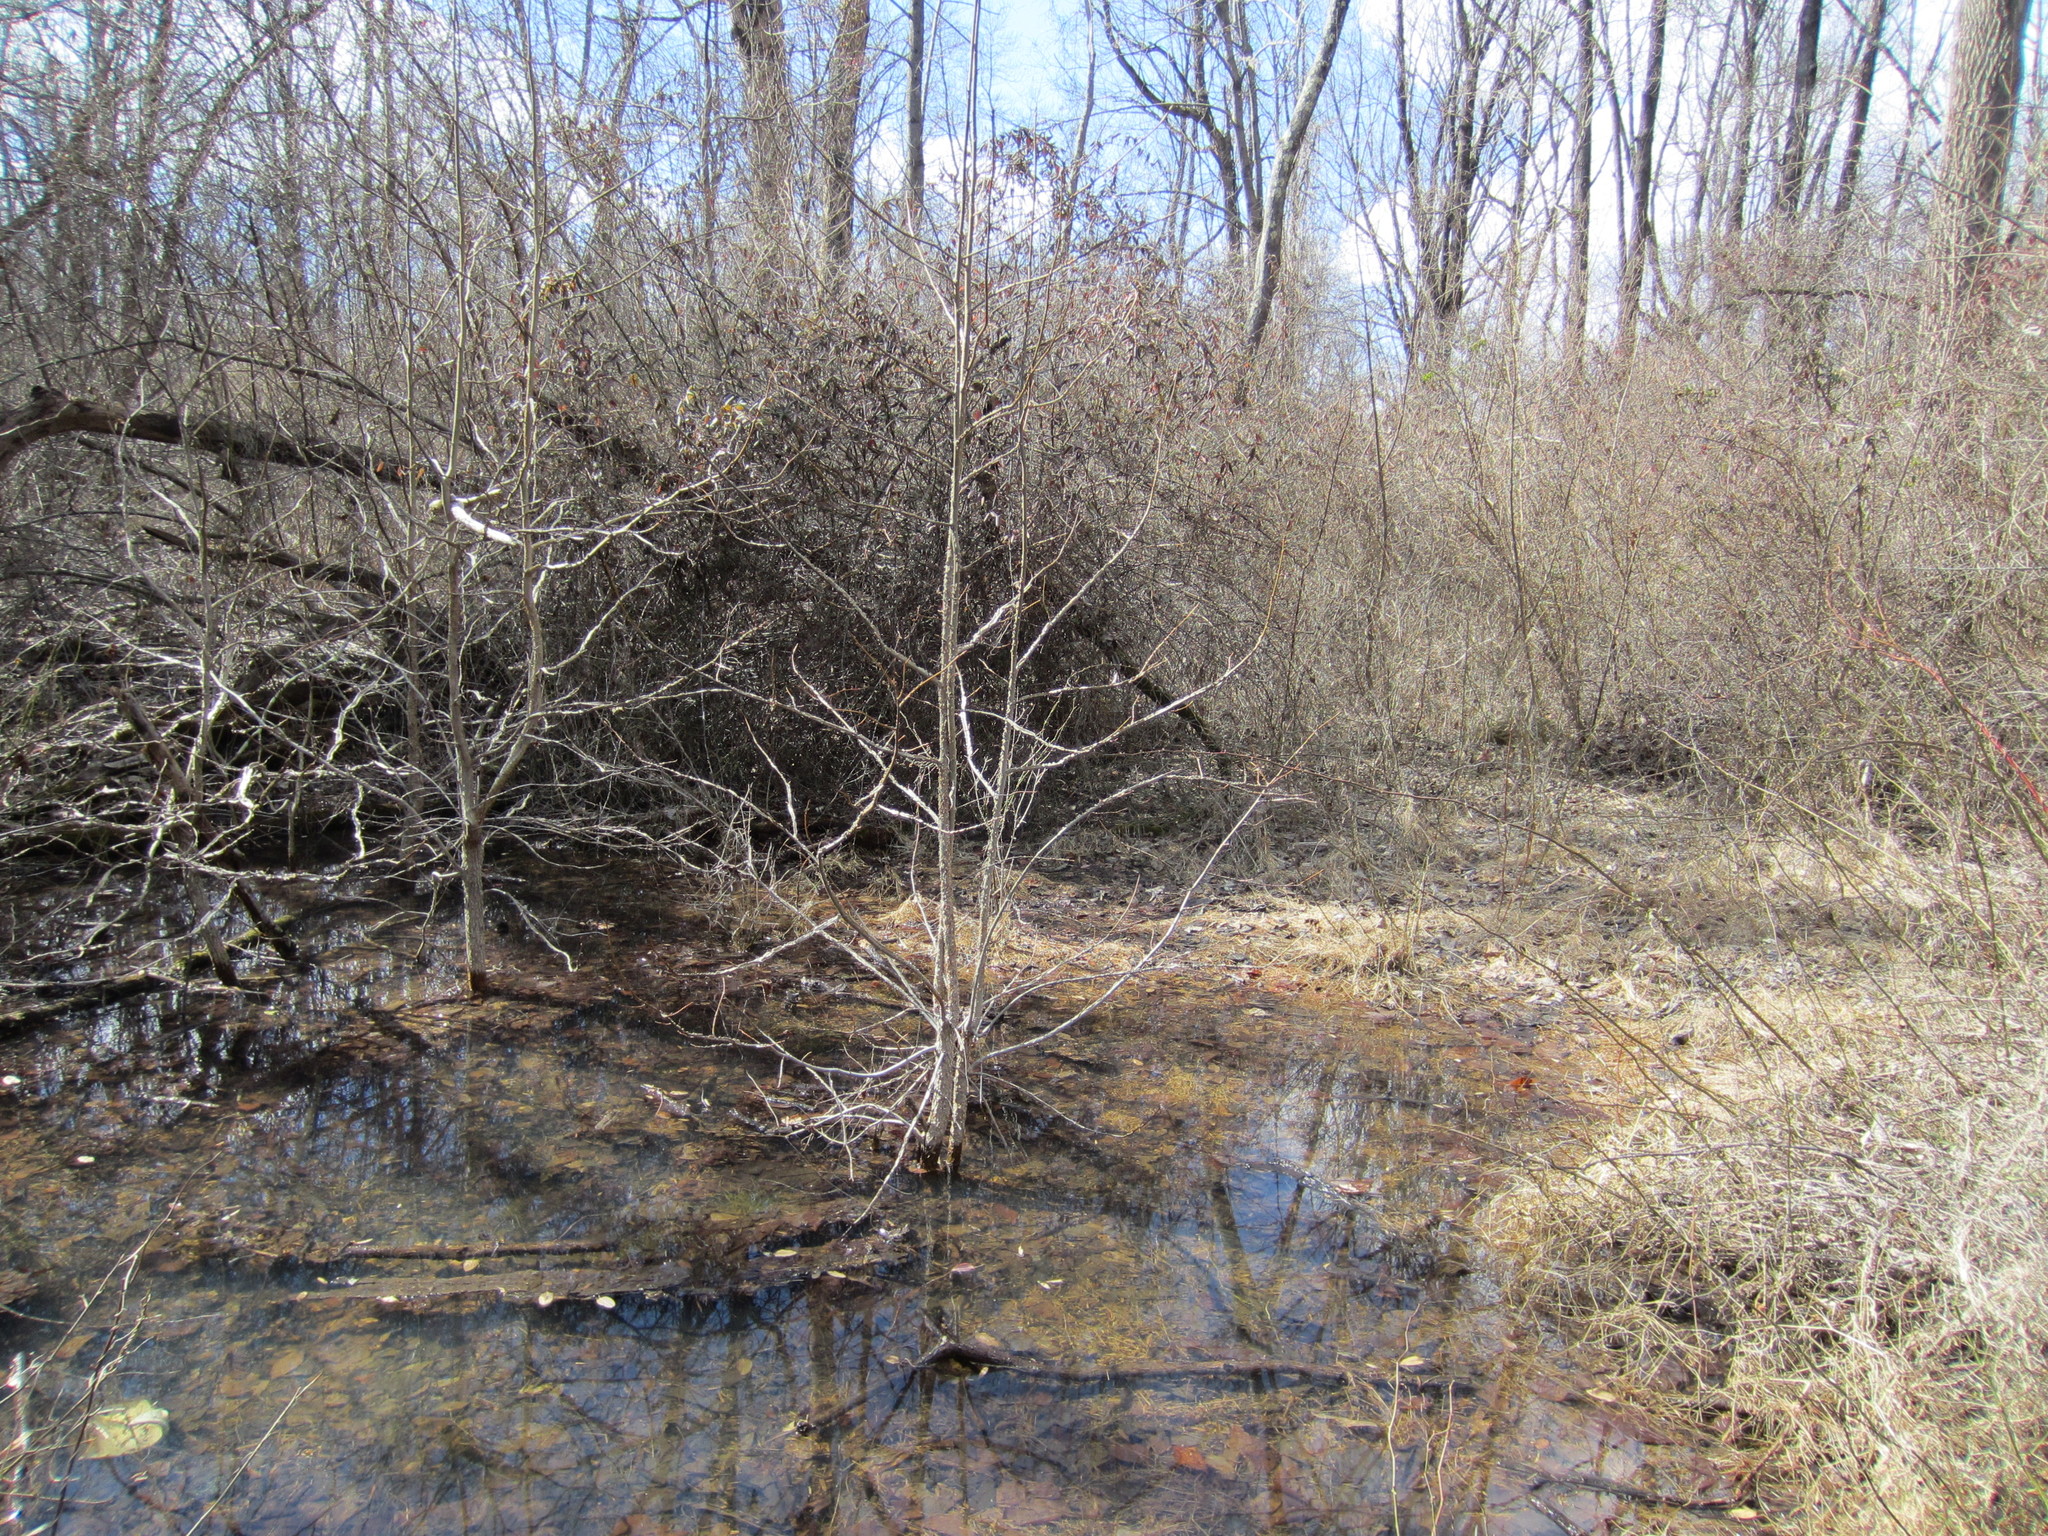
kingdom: Plantae
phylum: Tracheophyta
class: Magnoliopsida
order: Saxifragales
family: Altingiaceae
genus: Liquidambar
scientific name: Liquidambar styraciflua
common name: Sweet gum
